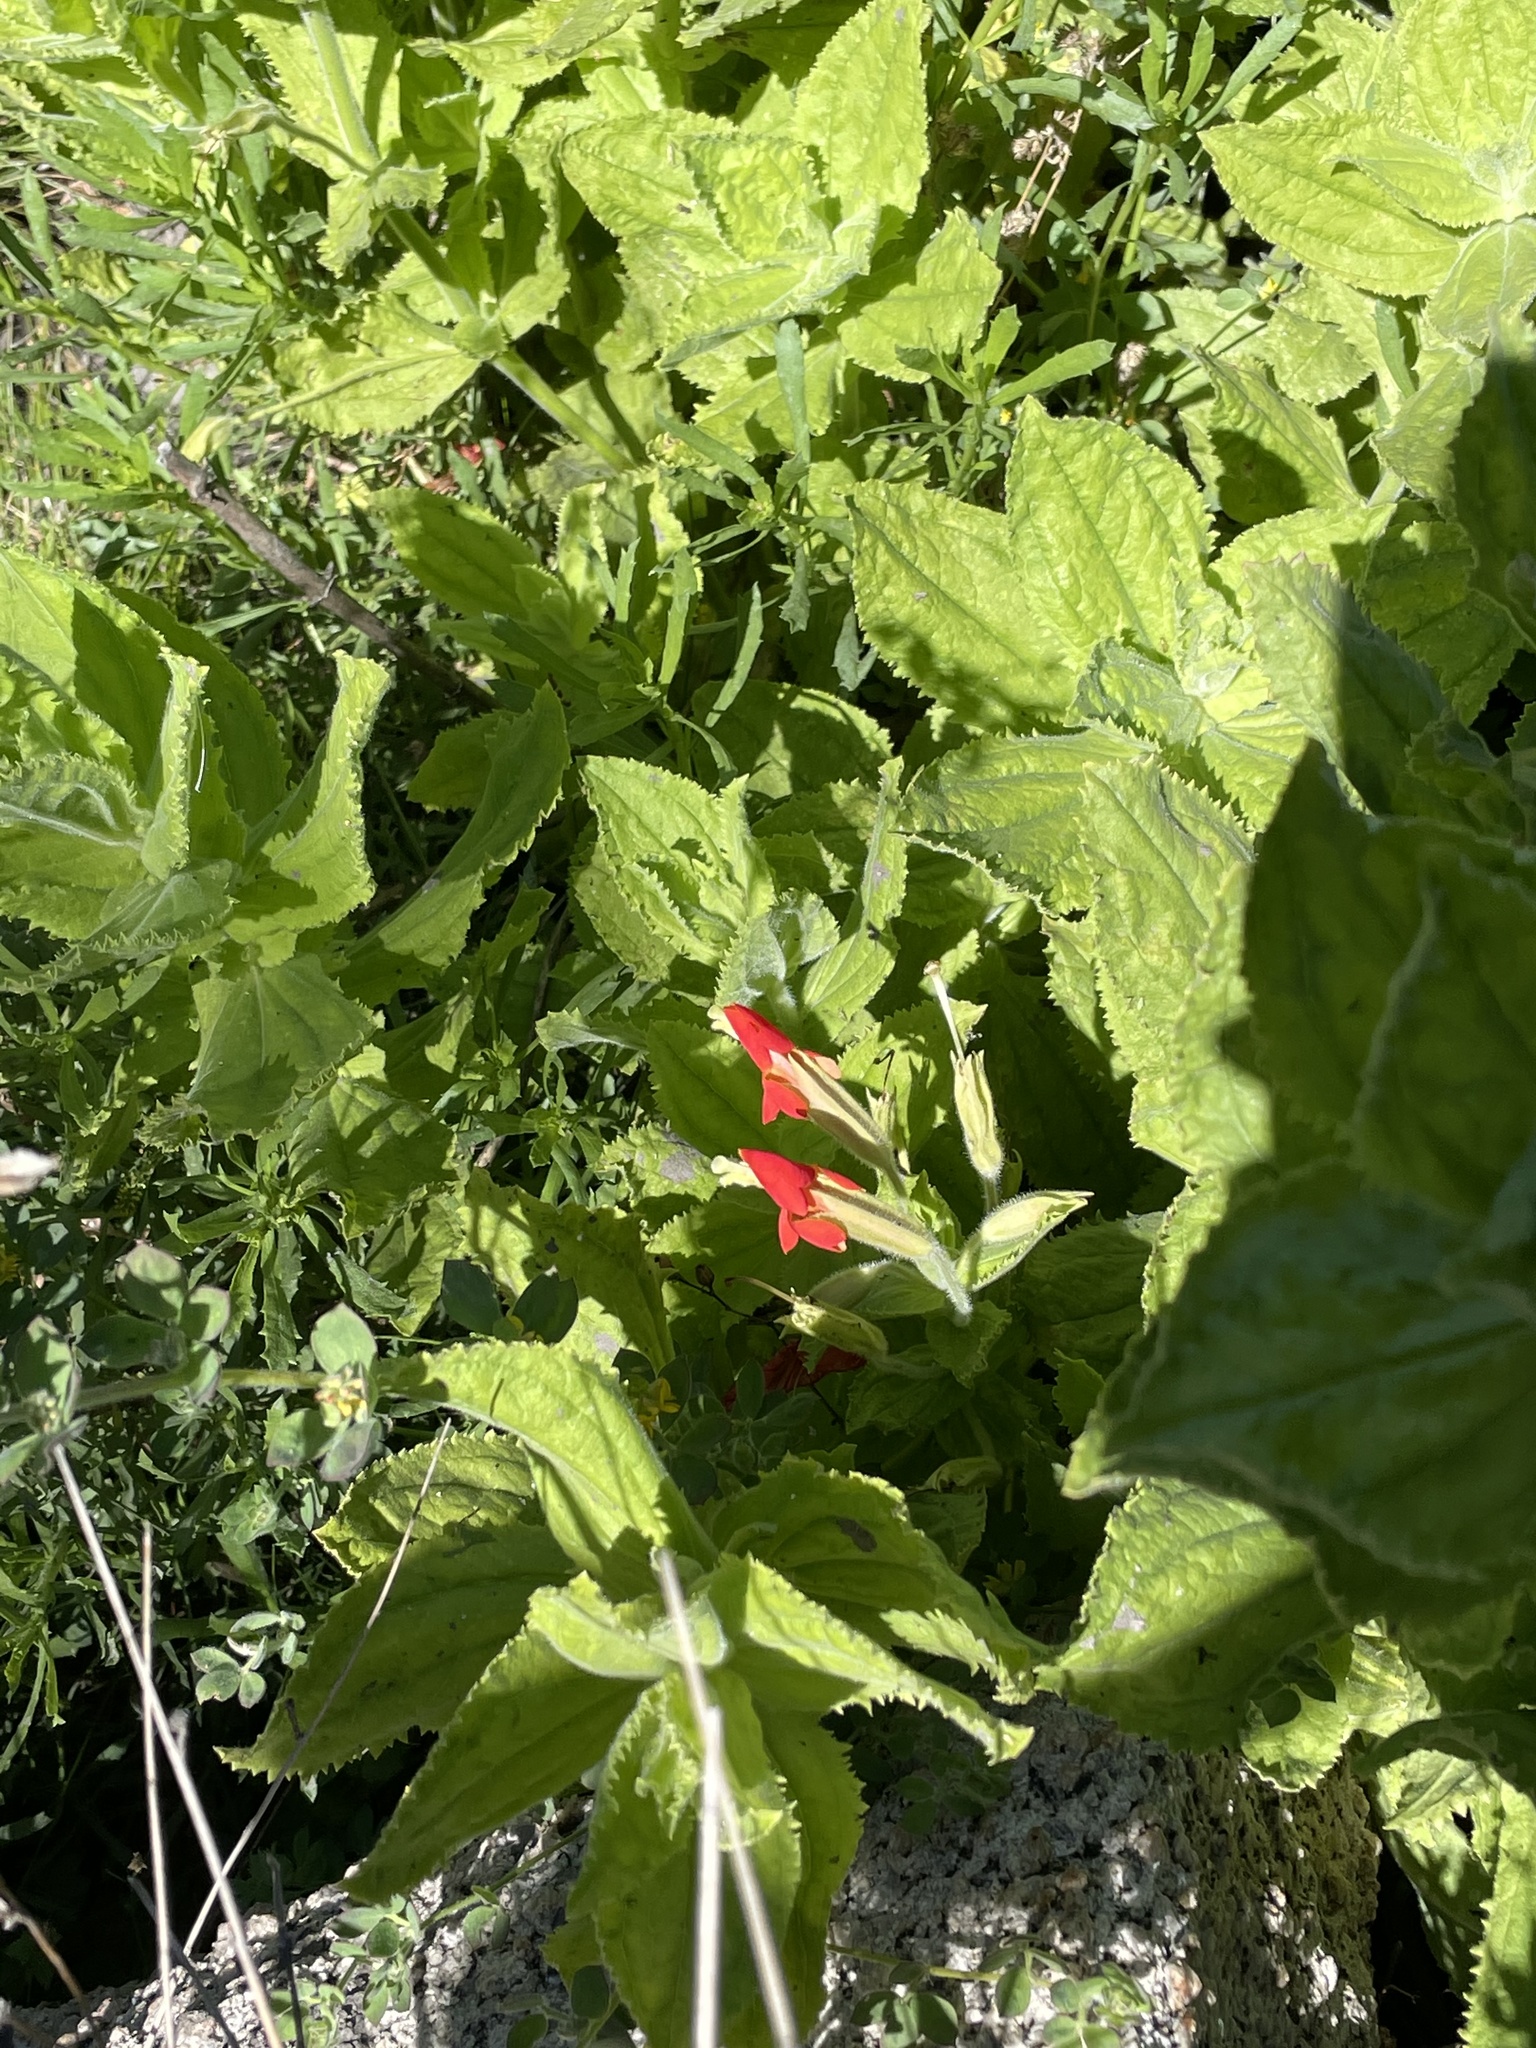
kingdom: Plantae
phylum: Tracheophyta
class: Magnoliopsida
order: Lamiales
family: Phrymaceae
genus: Erythranthe
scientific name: Erythranthe cardinalis
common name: Scarlet monkey-flower
